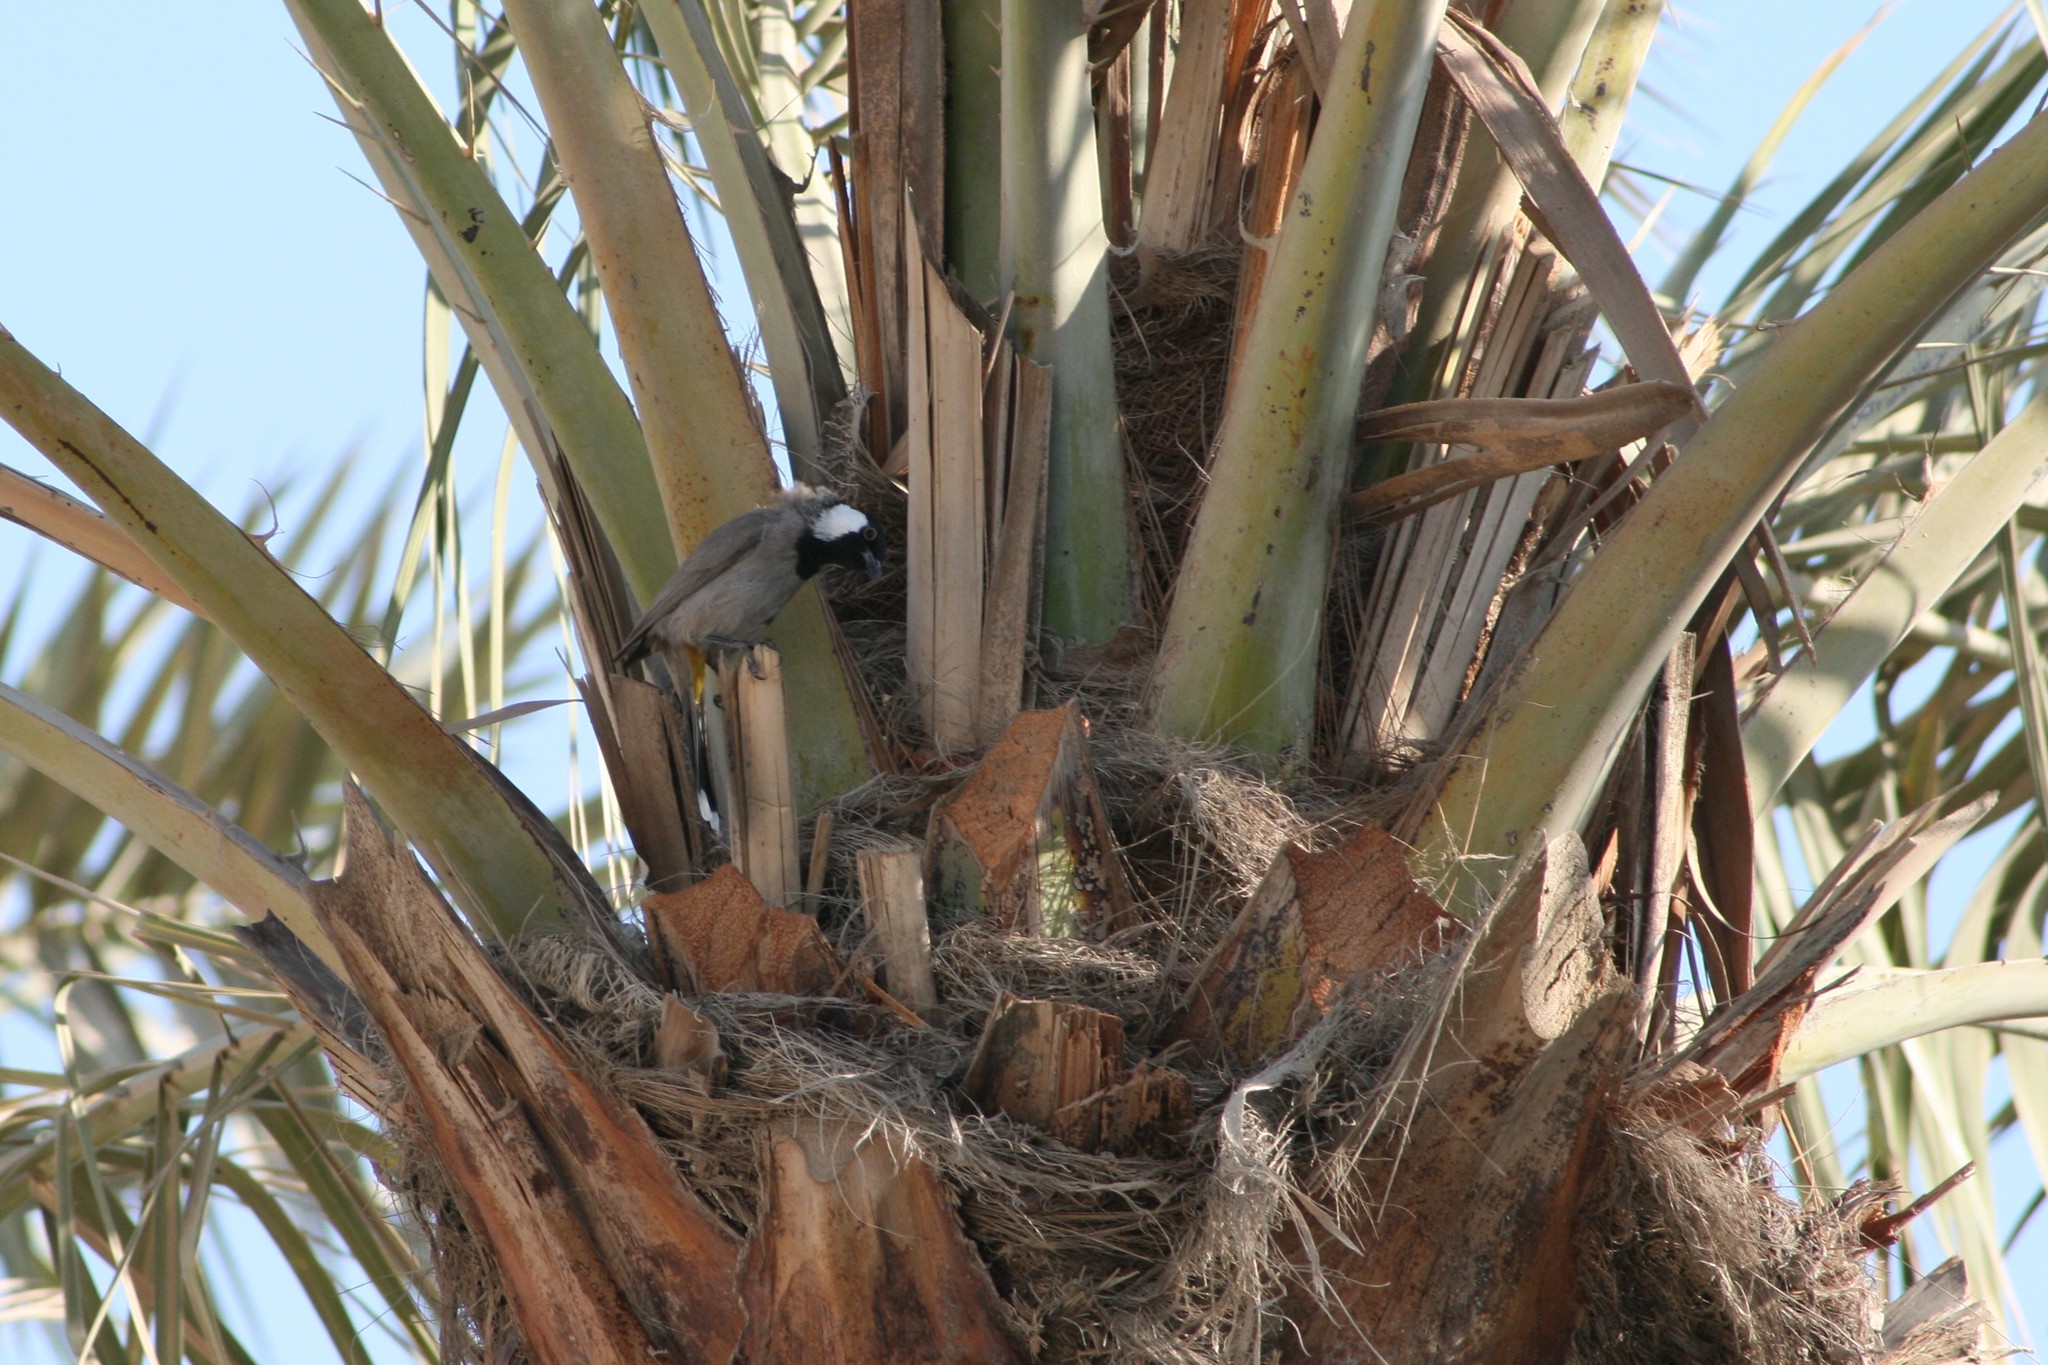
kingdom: Animalia
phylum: Chordata
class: Aves
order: Passeriformes
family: Pycnonotidae
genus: Pycnonotus
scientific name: Pycnonotus leucotis
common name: White-eared bulbul
